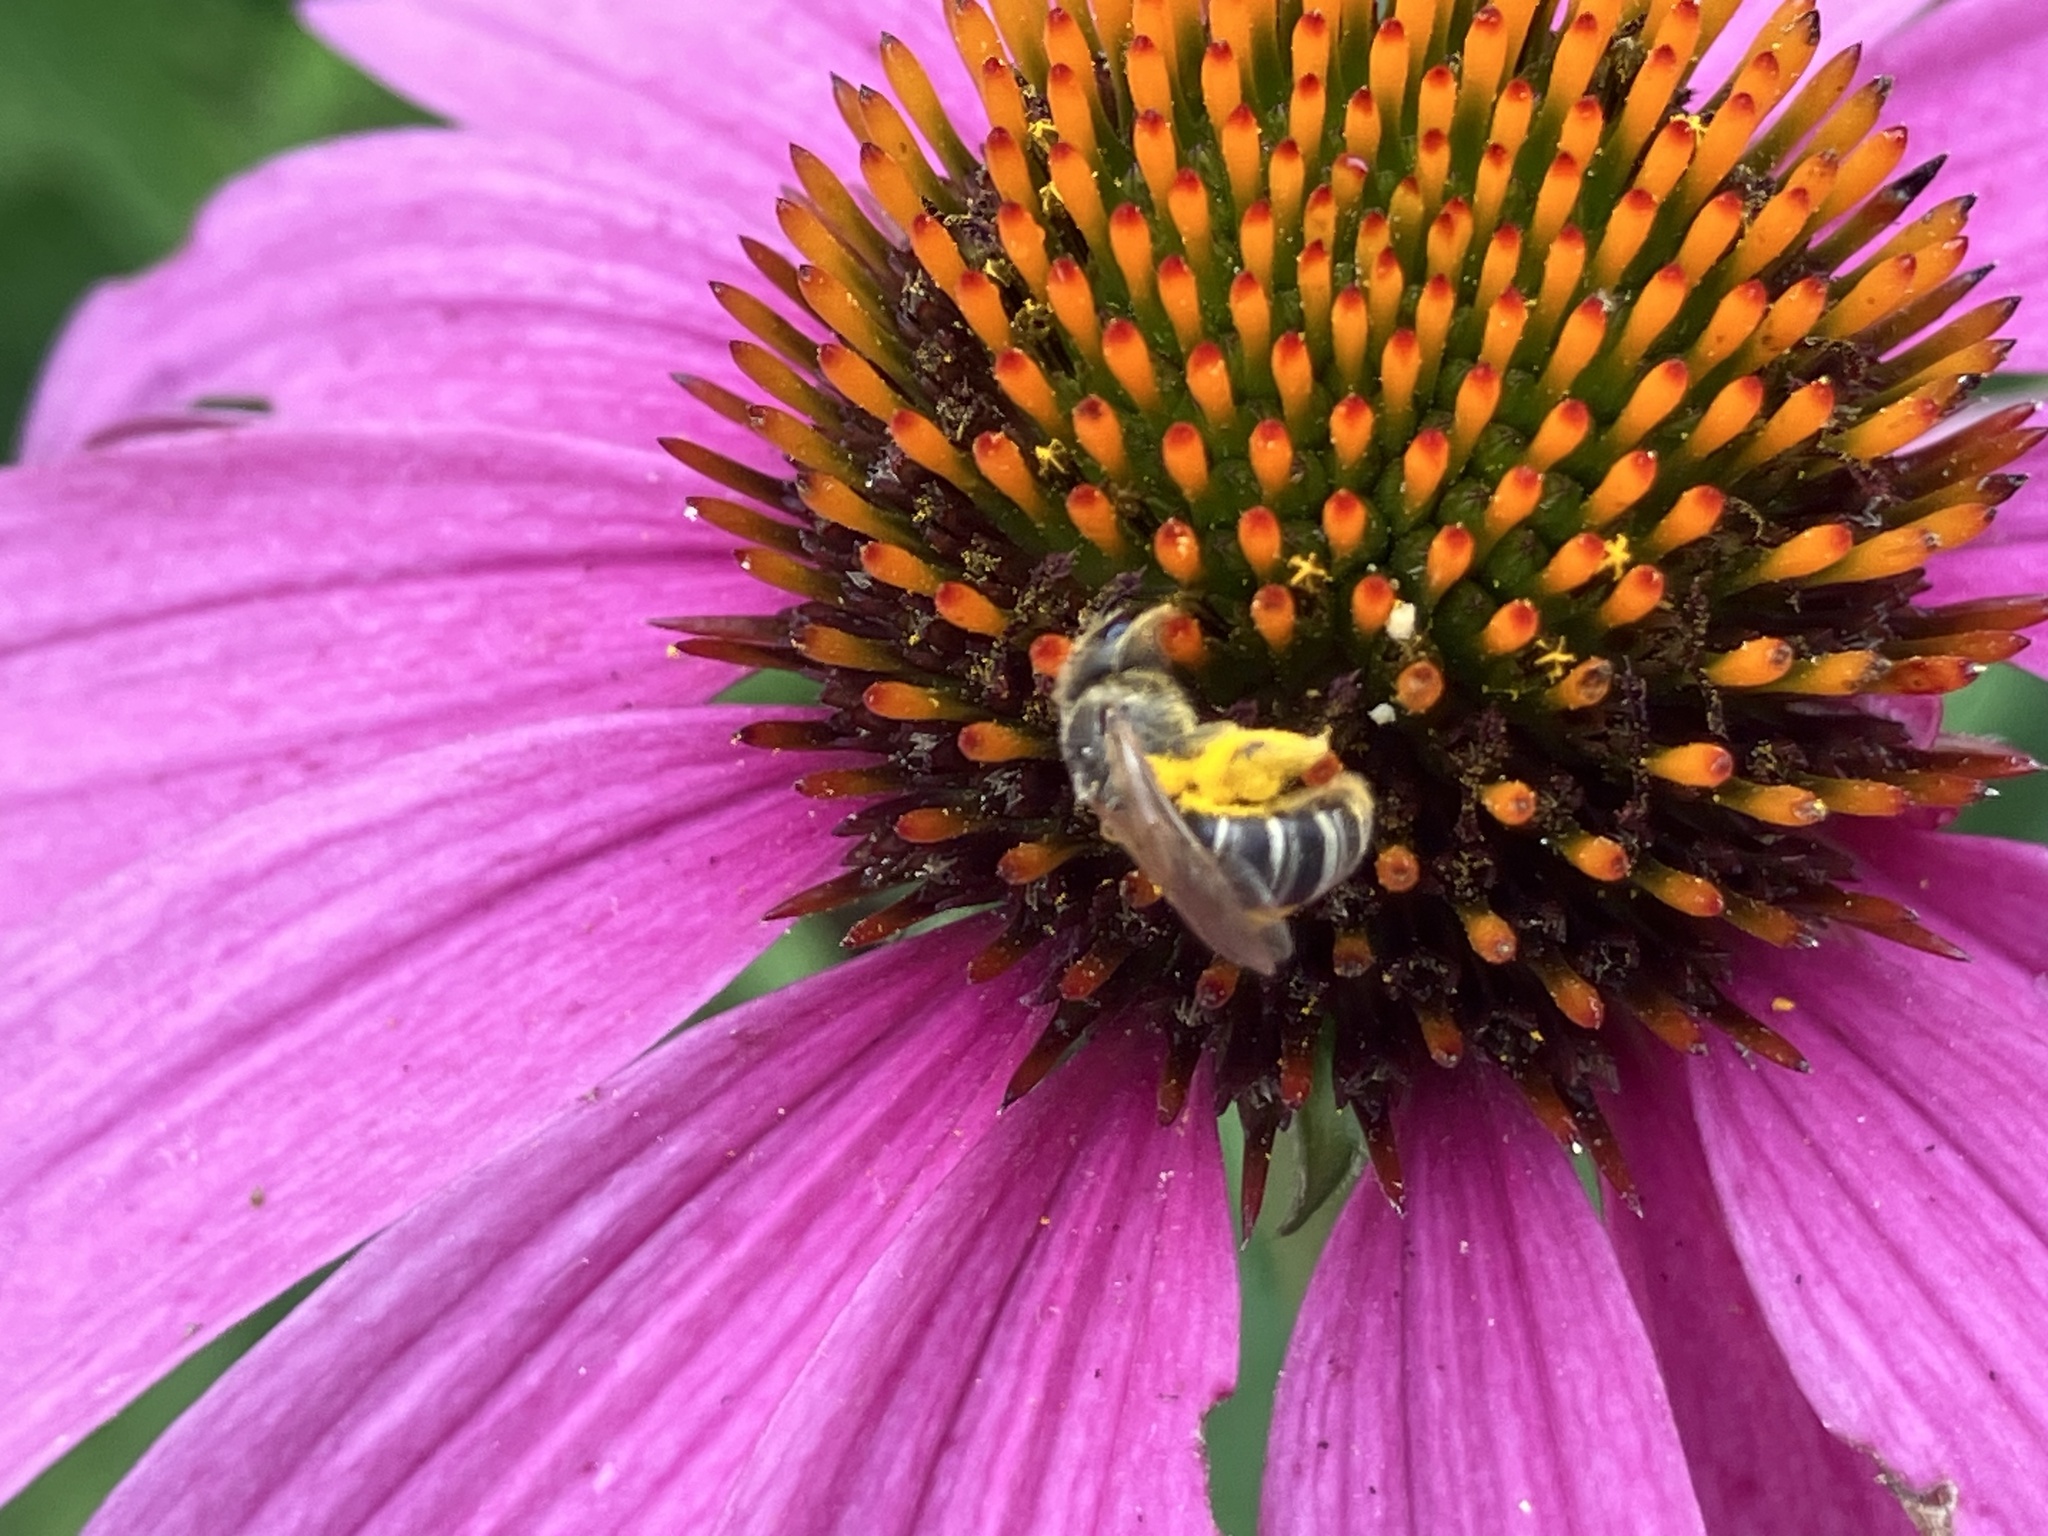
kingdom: Animalia
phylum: Arthropoda
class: Insecta
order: Hymenoptera
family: Halictidae
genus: Halictus
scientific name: Halictus ligatus
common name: Ligated furrow bee
